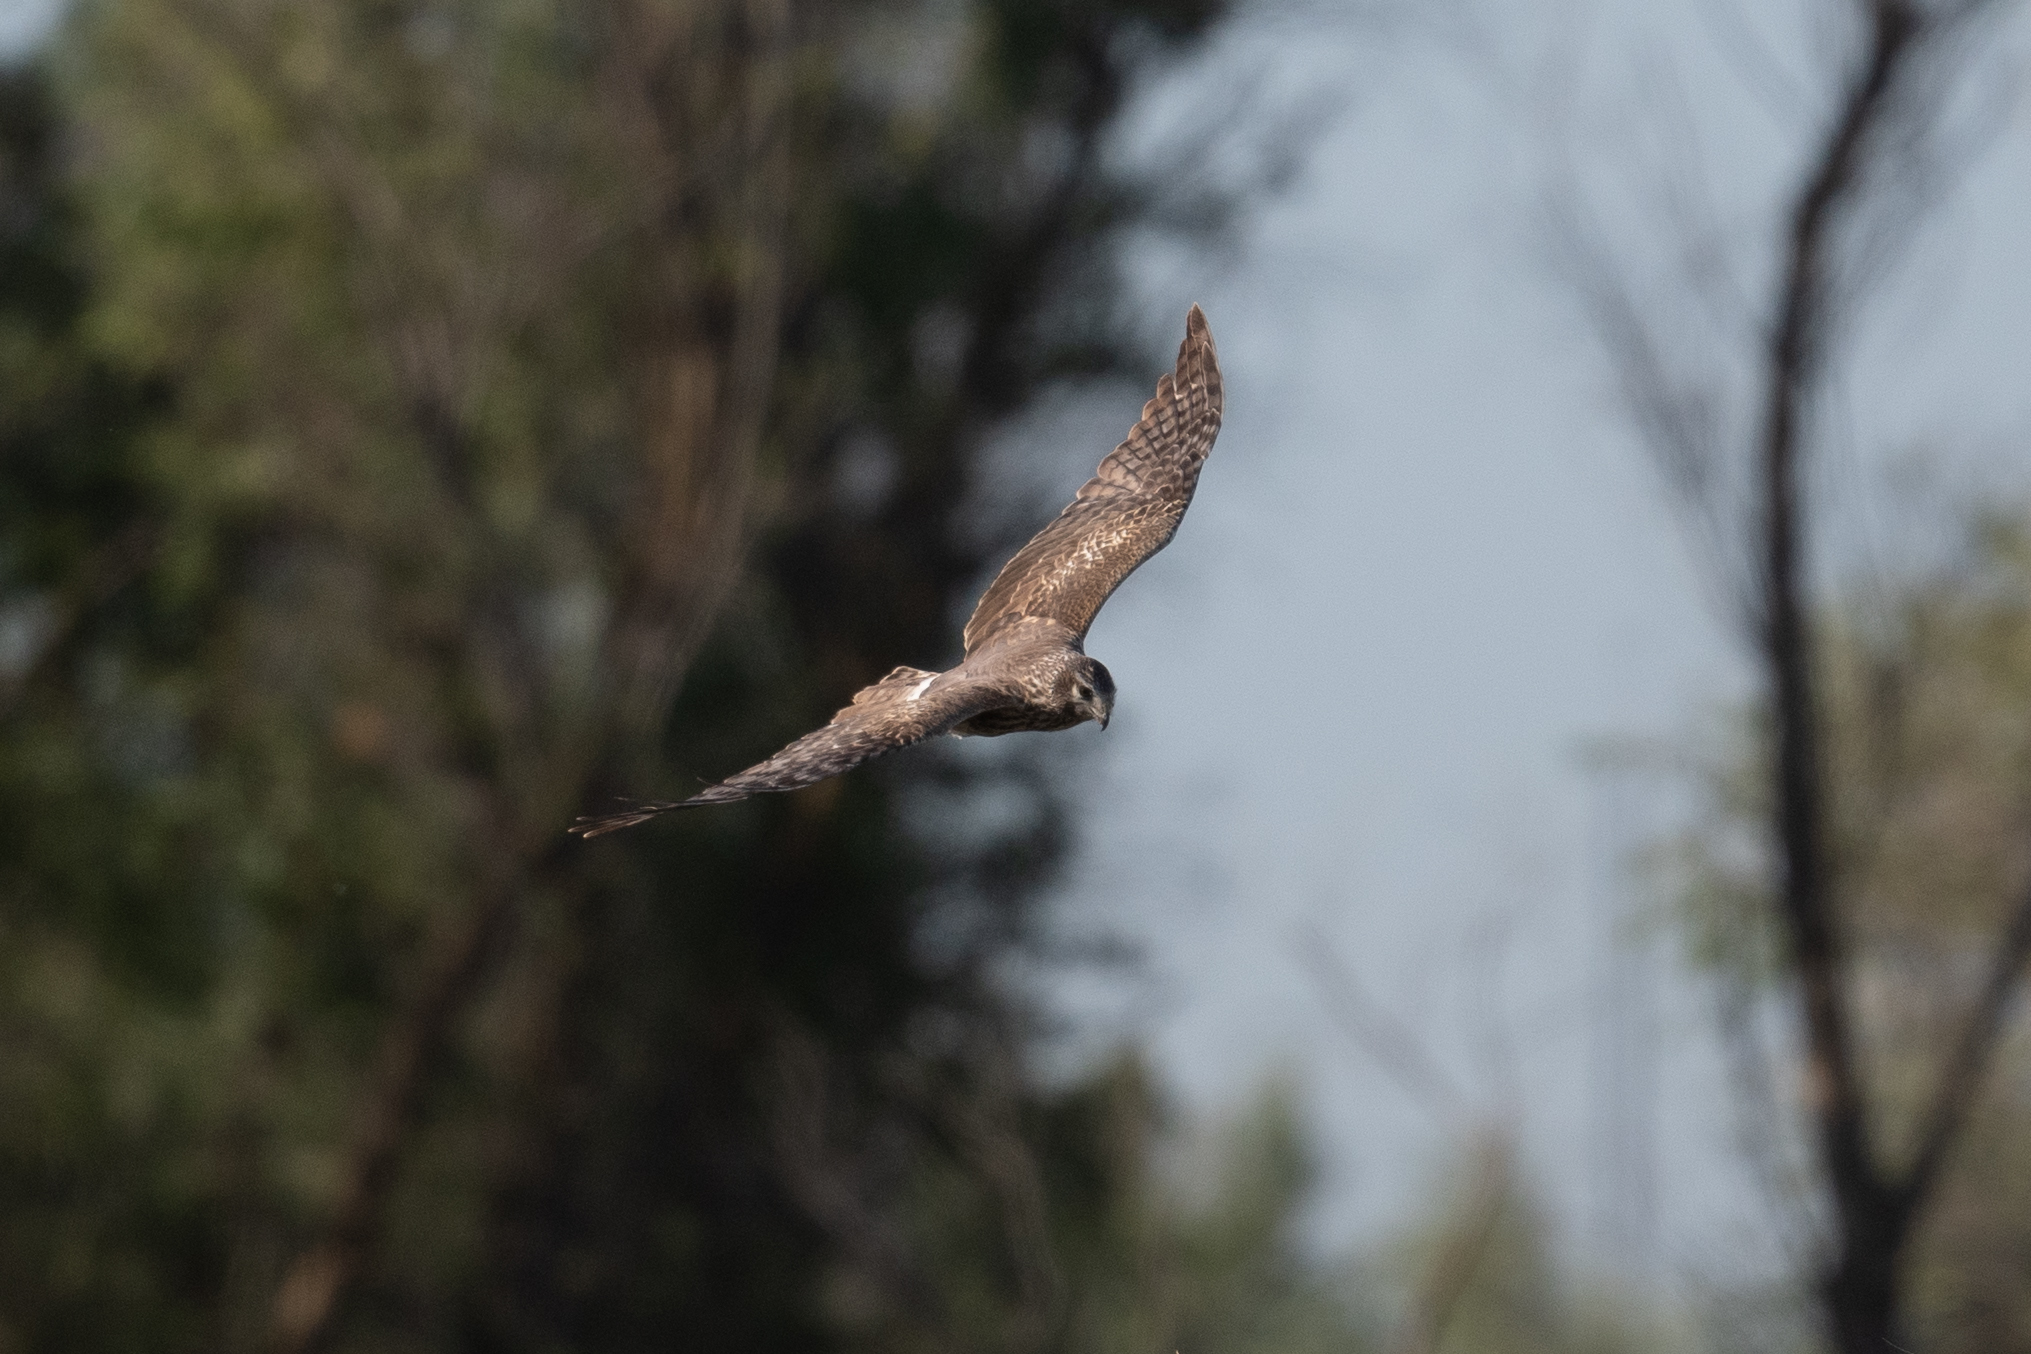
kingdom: Animalia
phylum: Chordata
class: Aves
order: Accipitriformes
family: Accipitridae
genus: Circus
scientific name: Circus cyaneus
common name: Hen harrier
